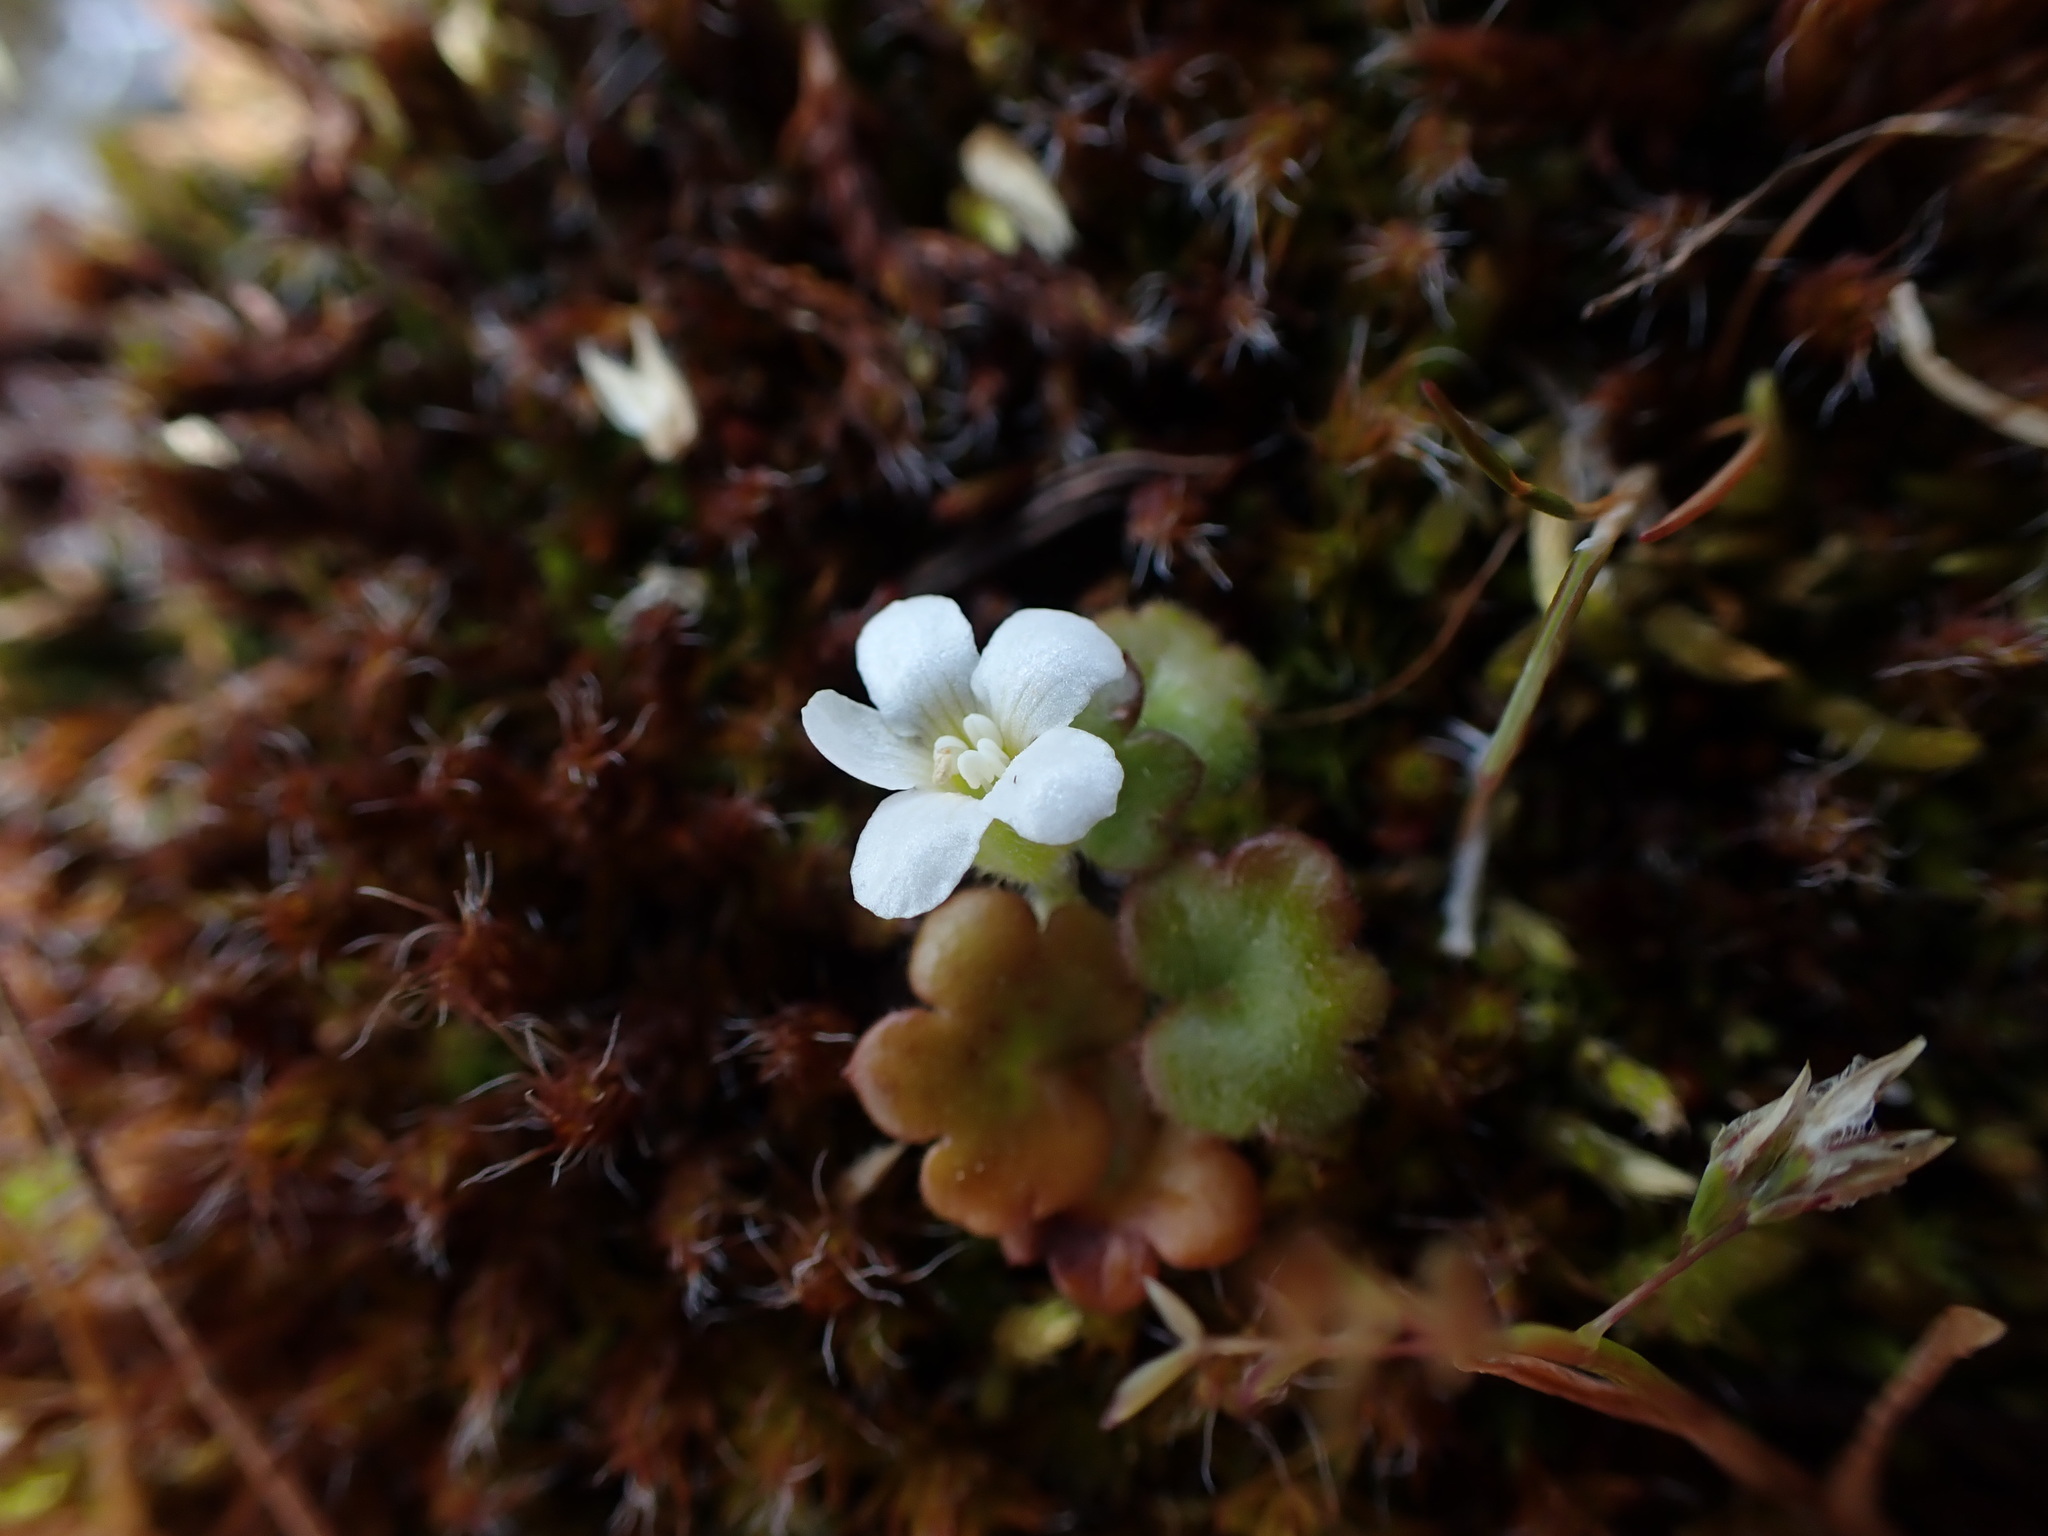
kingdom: Plantae
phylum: Tracheophyta
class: Magnoliopsida
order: Boraginales
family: Hydrophyllaceae
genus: Romanzoffia
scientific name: Romanzoffia tracyi
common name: Tracy's mistmaid
